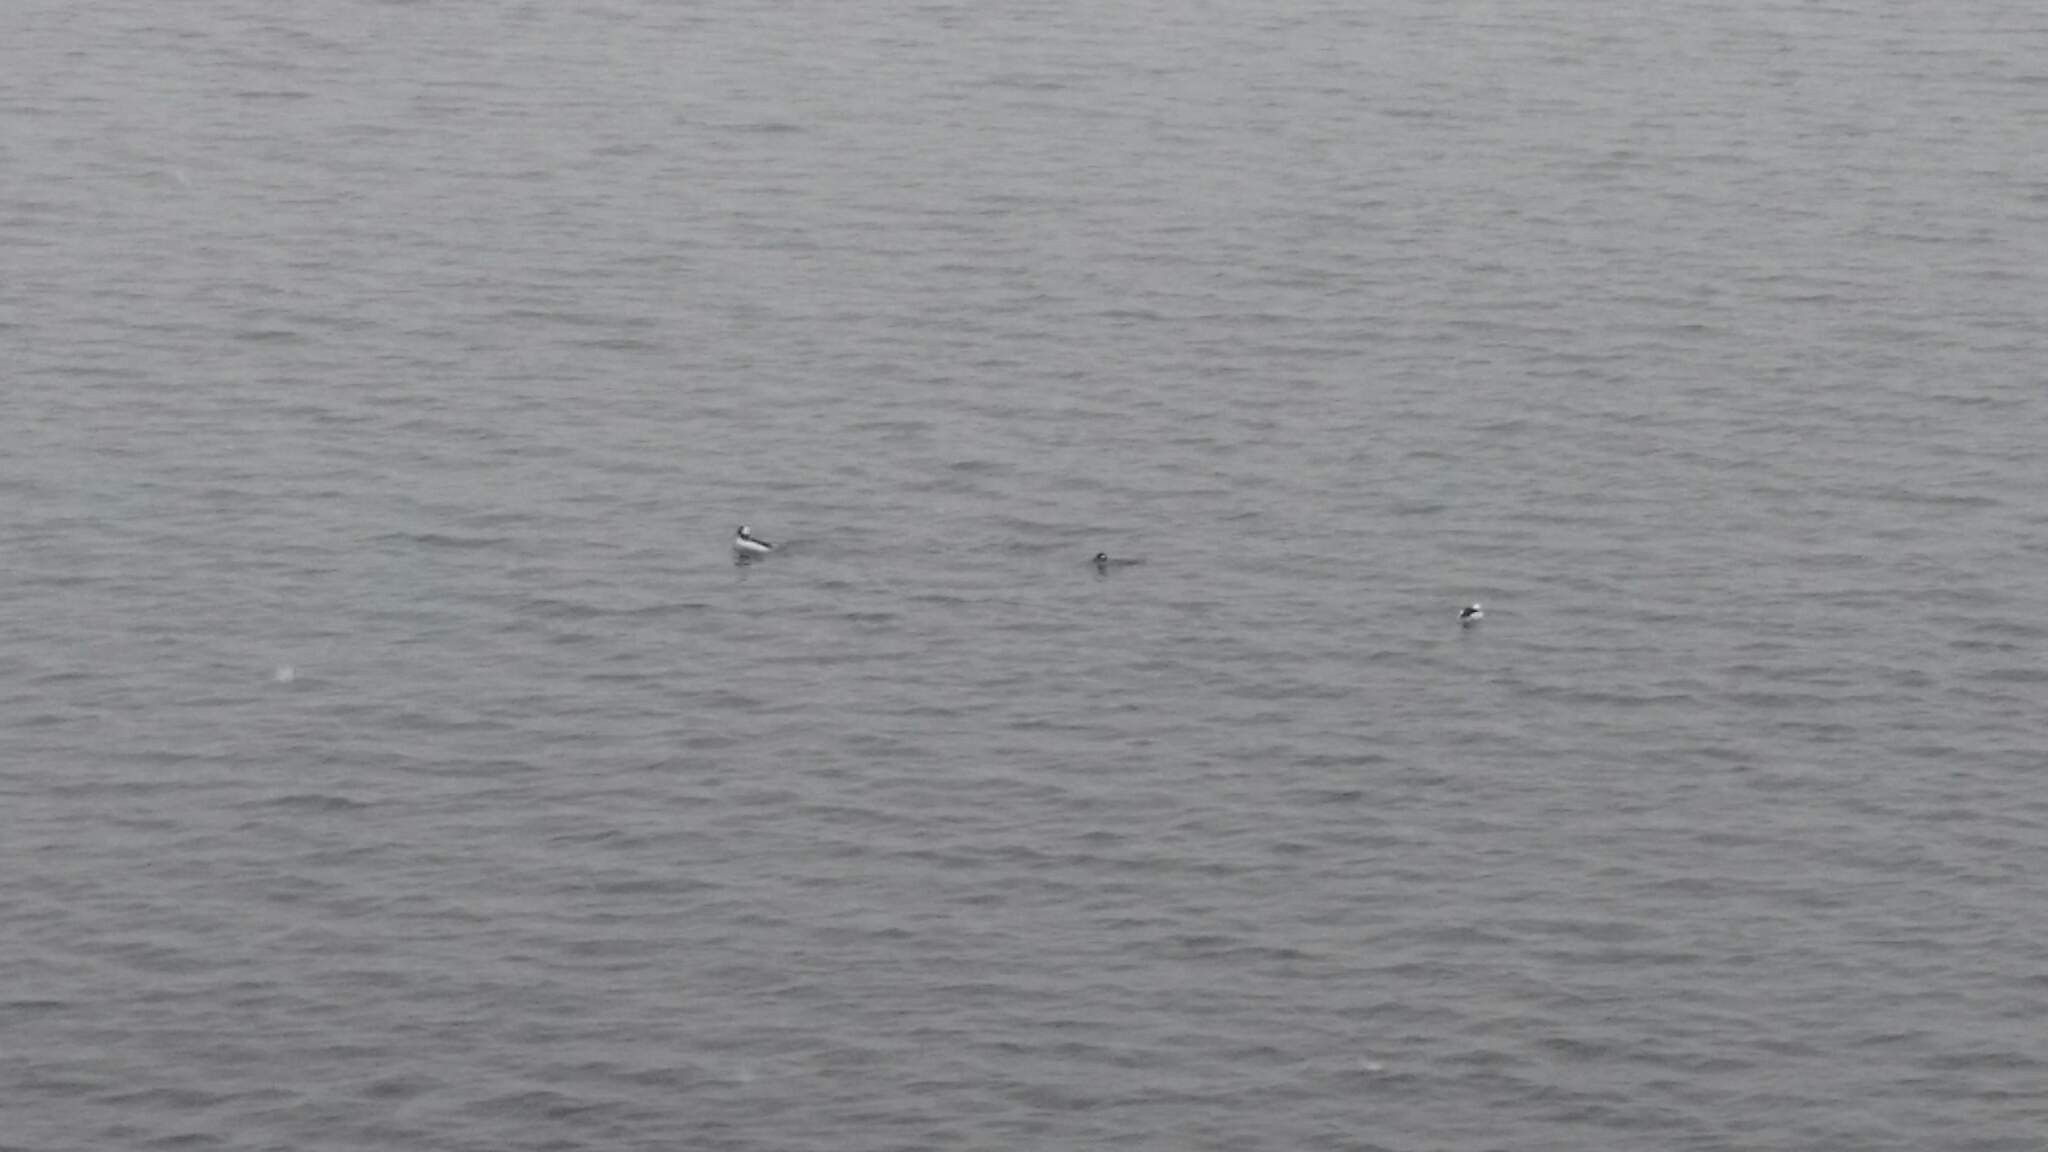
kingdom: Animalia
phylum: Chordata
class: Aves
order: Anseriformes
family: Anatidae
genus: Bucephala
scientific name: Bucephala albeola
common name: Bufflehead
